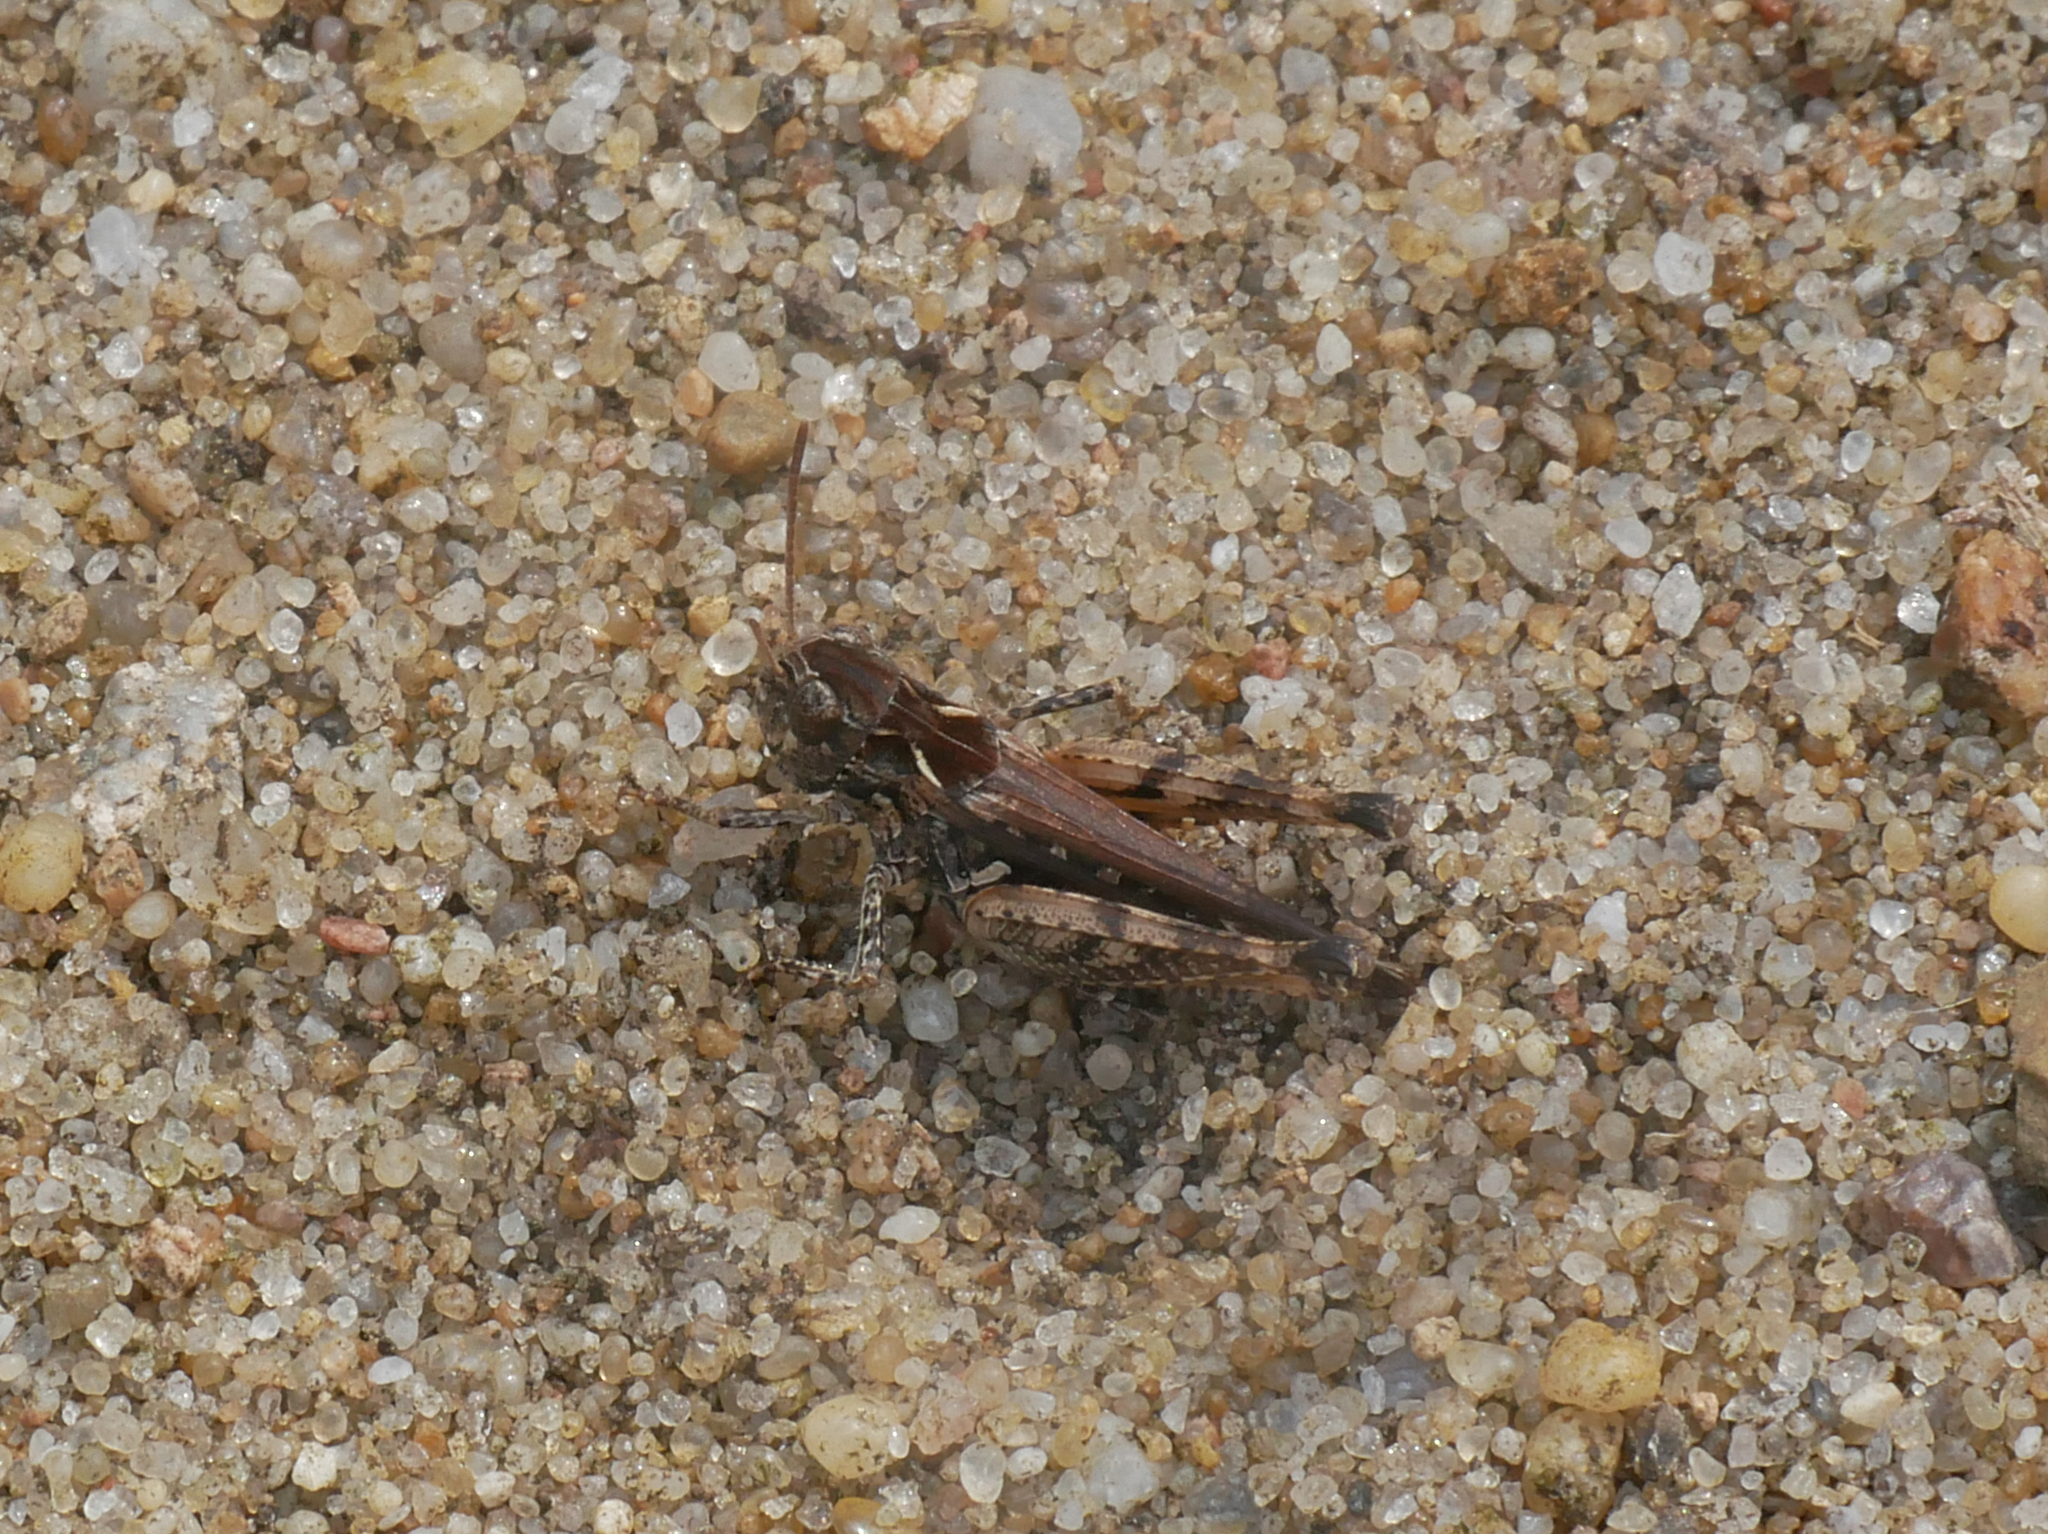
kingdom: Animalia
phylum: Arthropoda
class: Insecta
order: Orthoptera
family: Acrididae
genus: Myrmeleotettix
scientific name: Myrmeleotettix maculatus
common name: Mottled grasshopper
